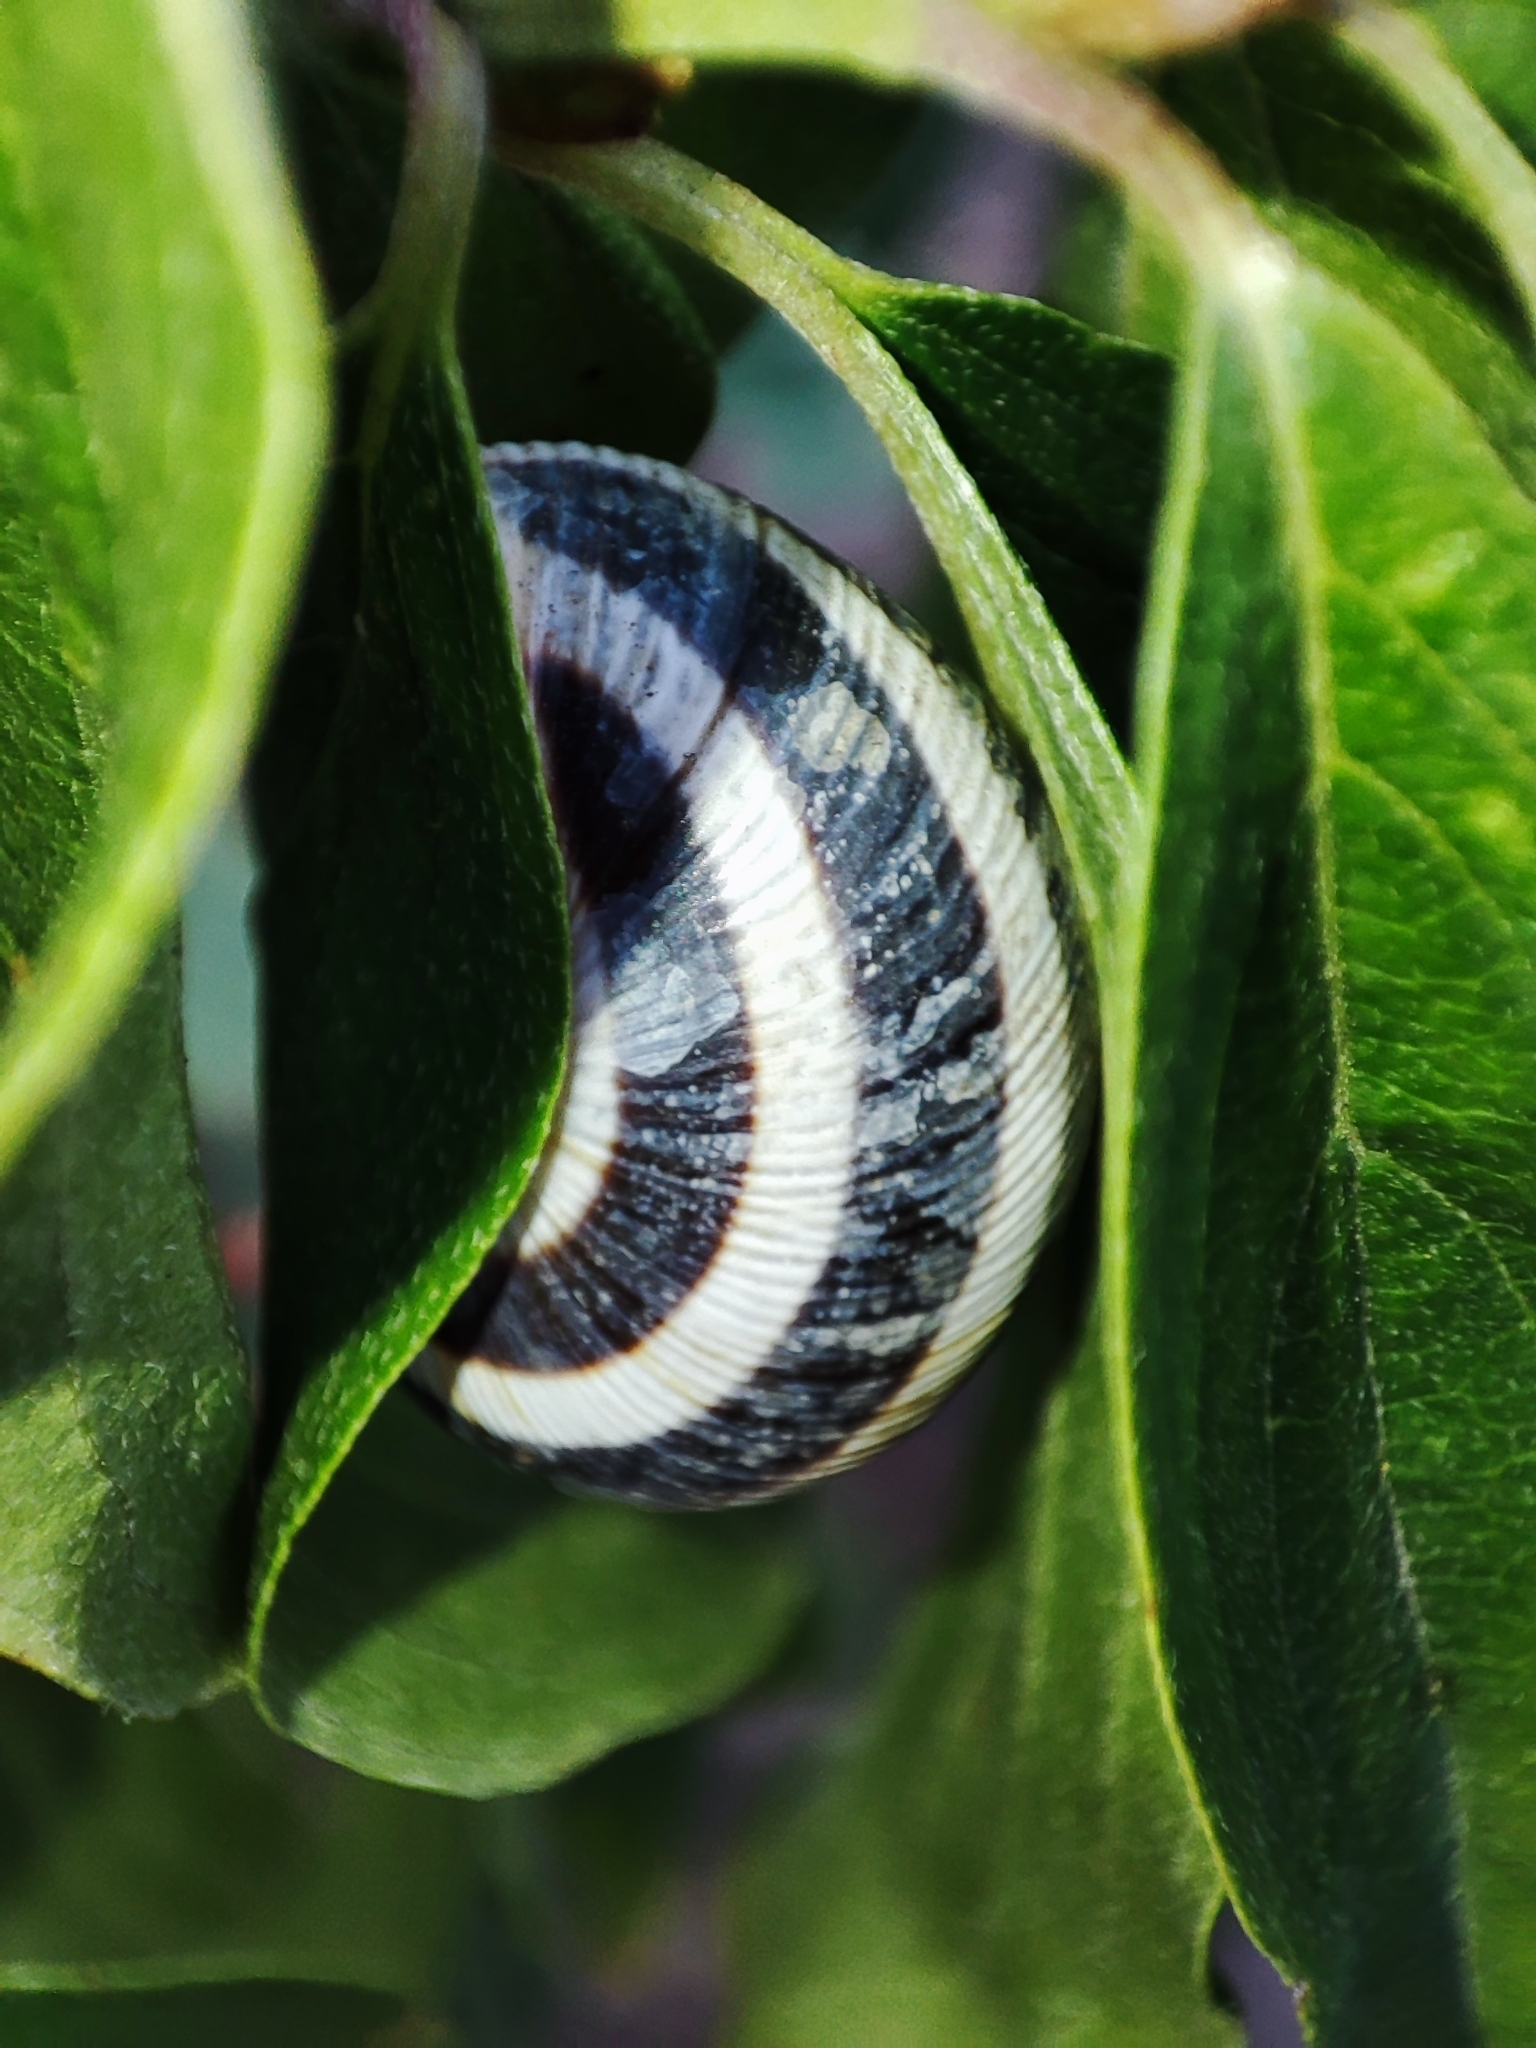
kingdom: Animalia
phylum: Mollusca
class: Gastropoda
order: Stylommatophora
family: Helicidae
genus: Caucasotachea
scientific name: Caucasotachea vindobonensis
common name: European helicid land snail
